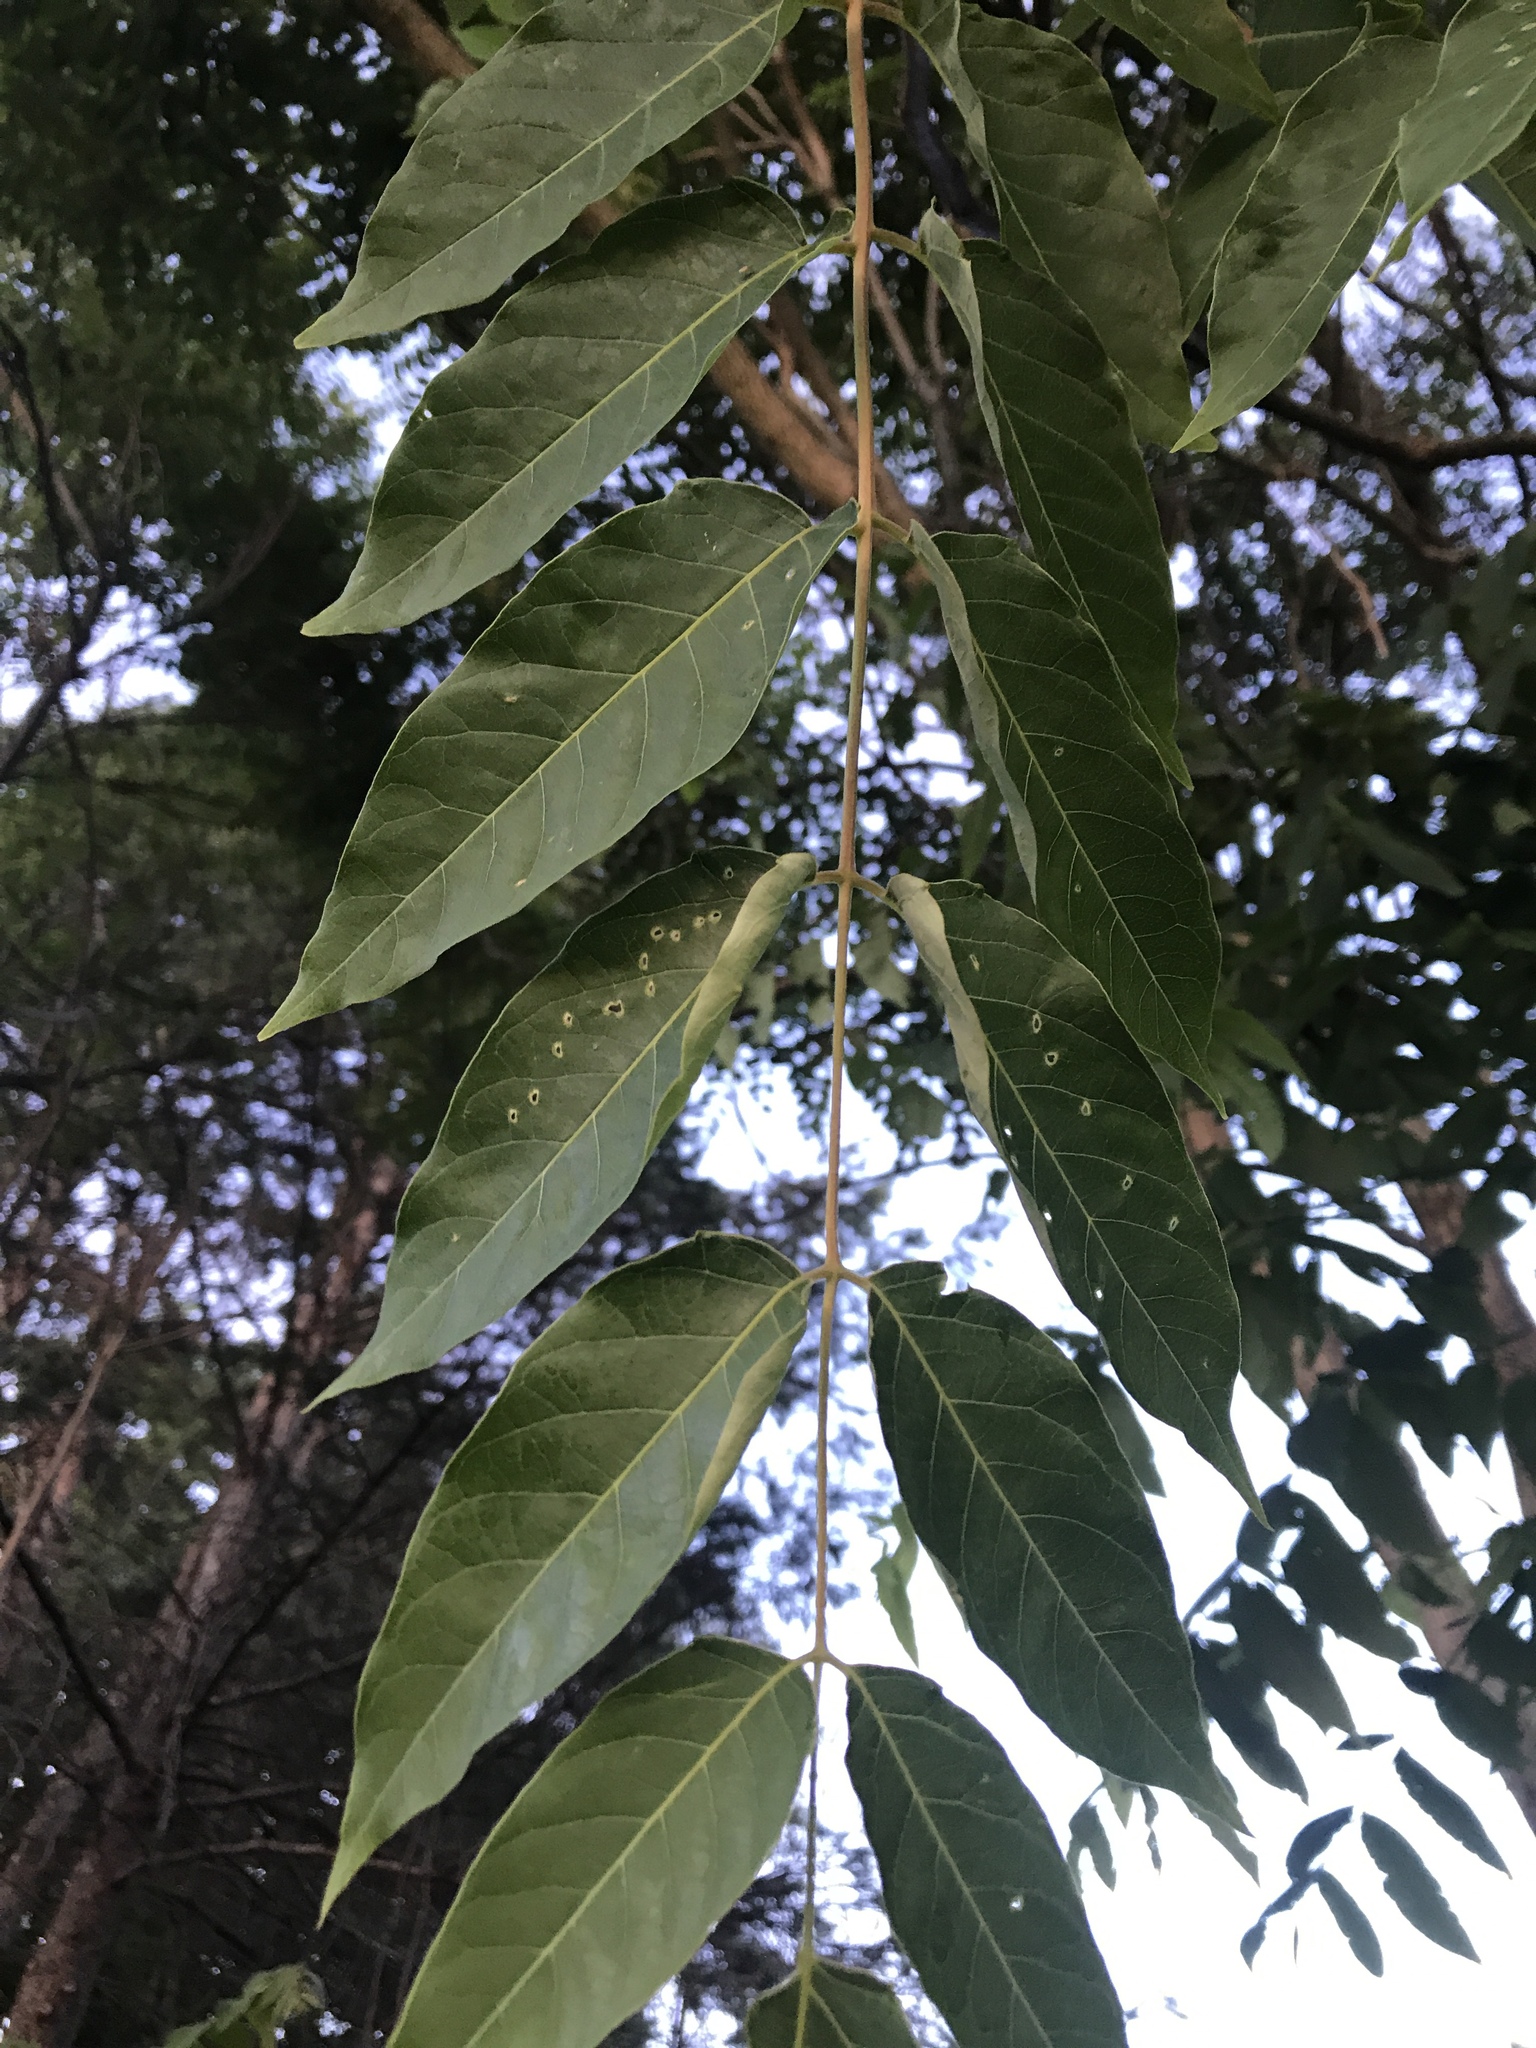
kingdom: Plantae
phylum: Tracheophyta
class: Magnoliopsida
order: Sapindales
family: Simaroubaceae
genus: Ailanthus
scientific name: Ailanthus altissima
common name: Tree-of-heaven
